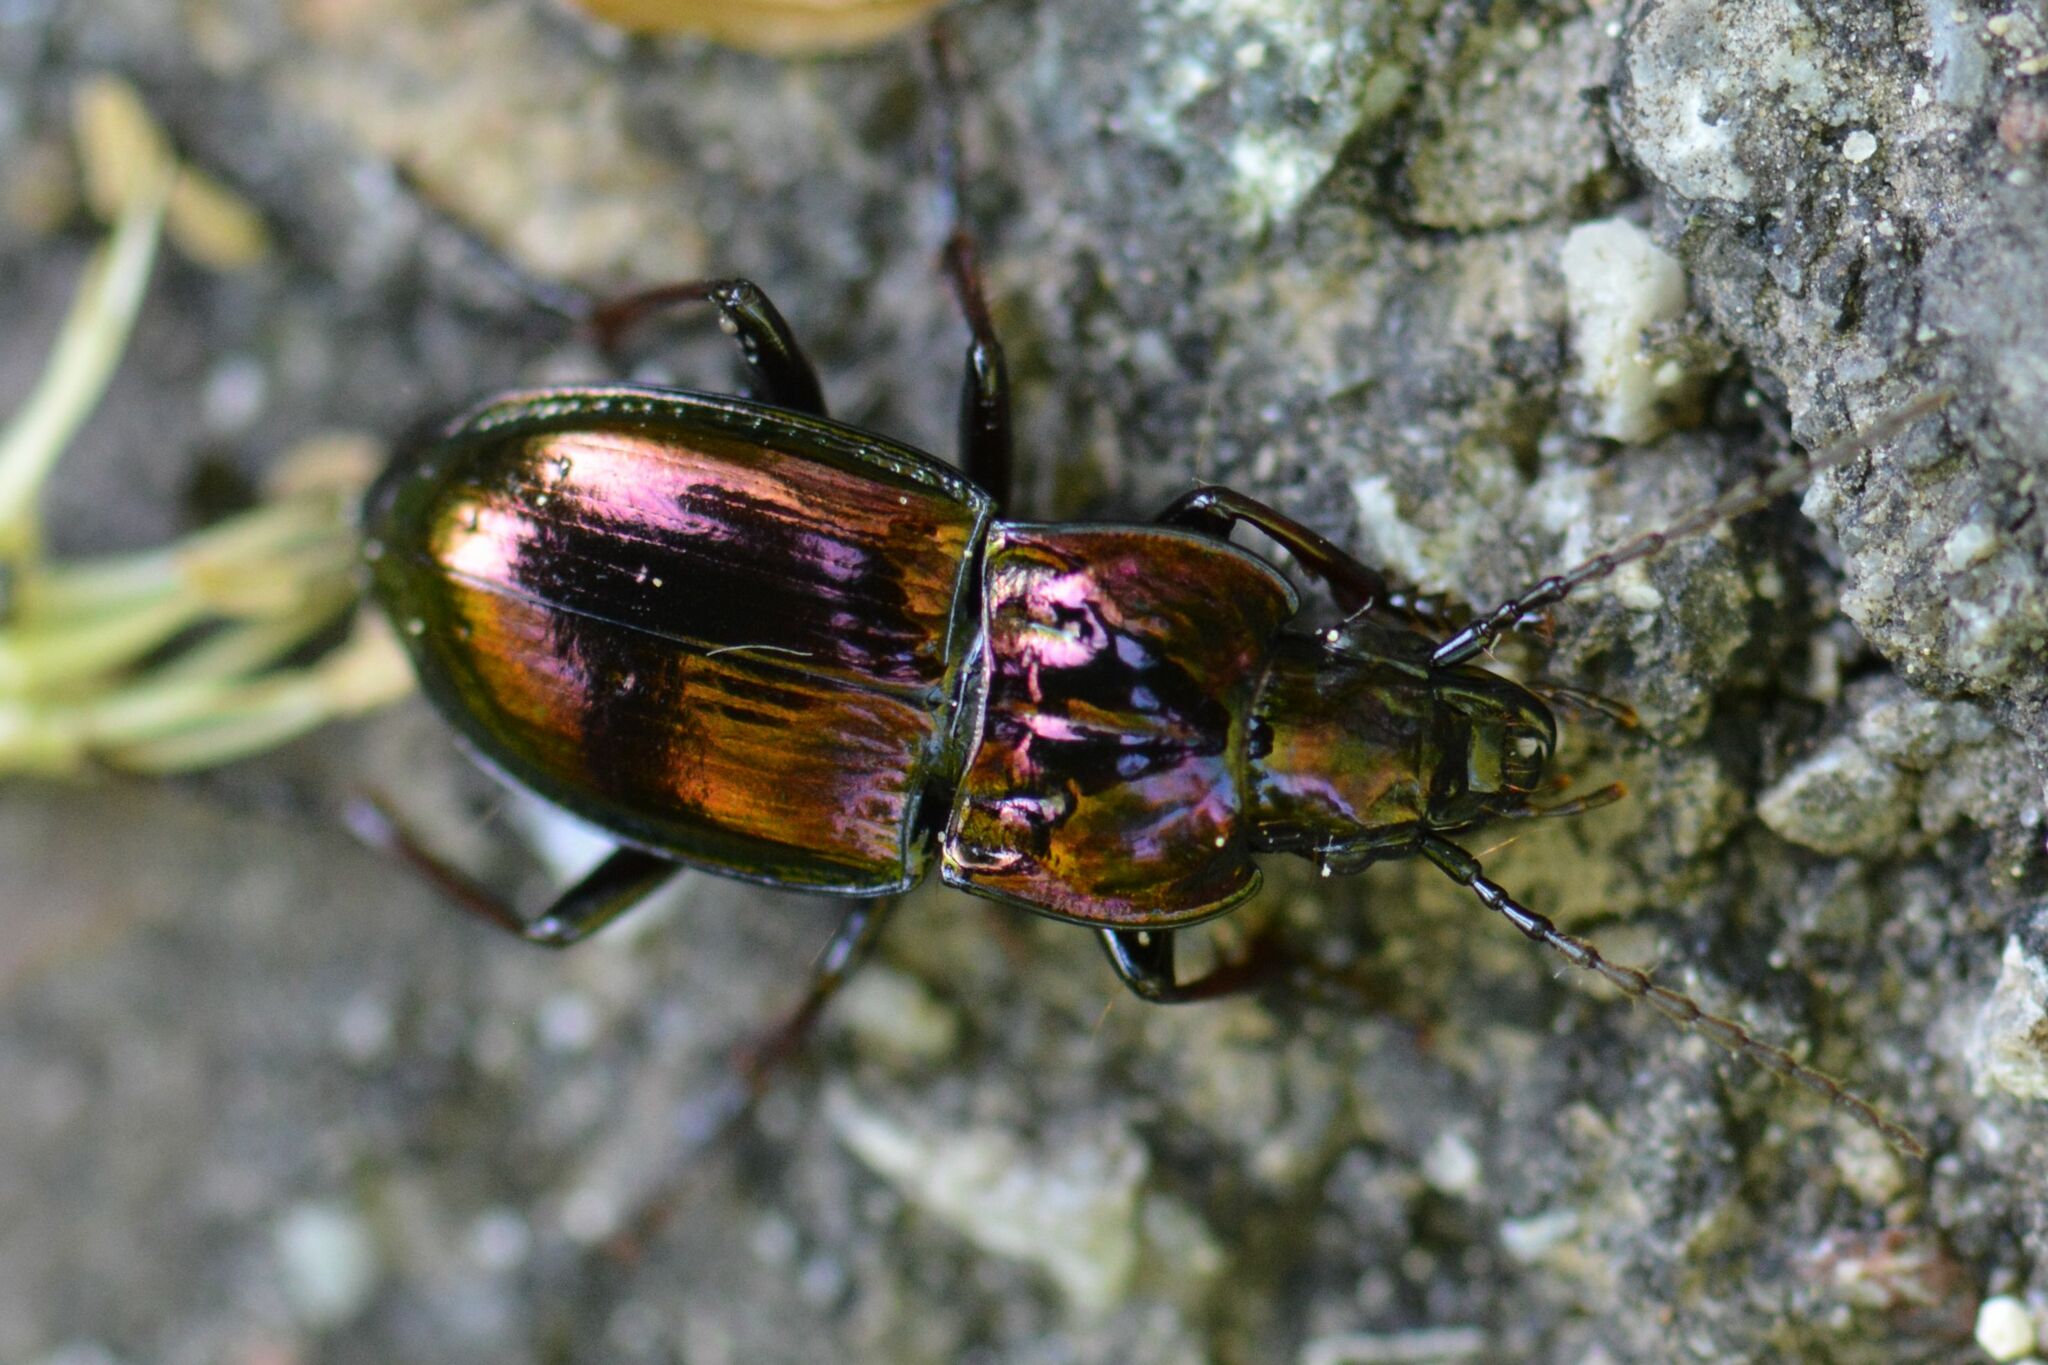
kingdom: Animalia
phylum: Arthropoda
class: Insecta
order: Coleoptera
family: Carabidae
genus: Pterostichus
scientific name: Pterostichus burmeisteri
